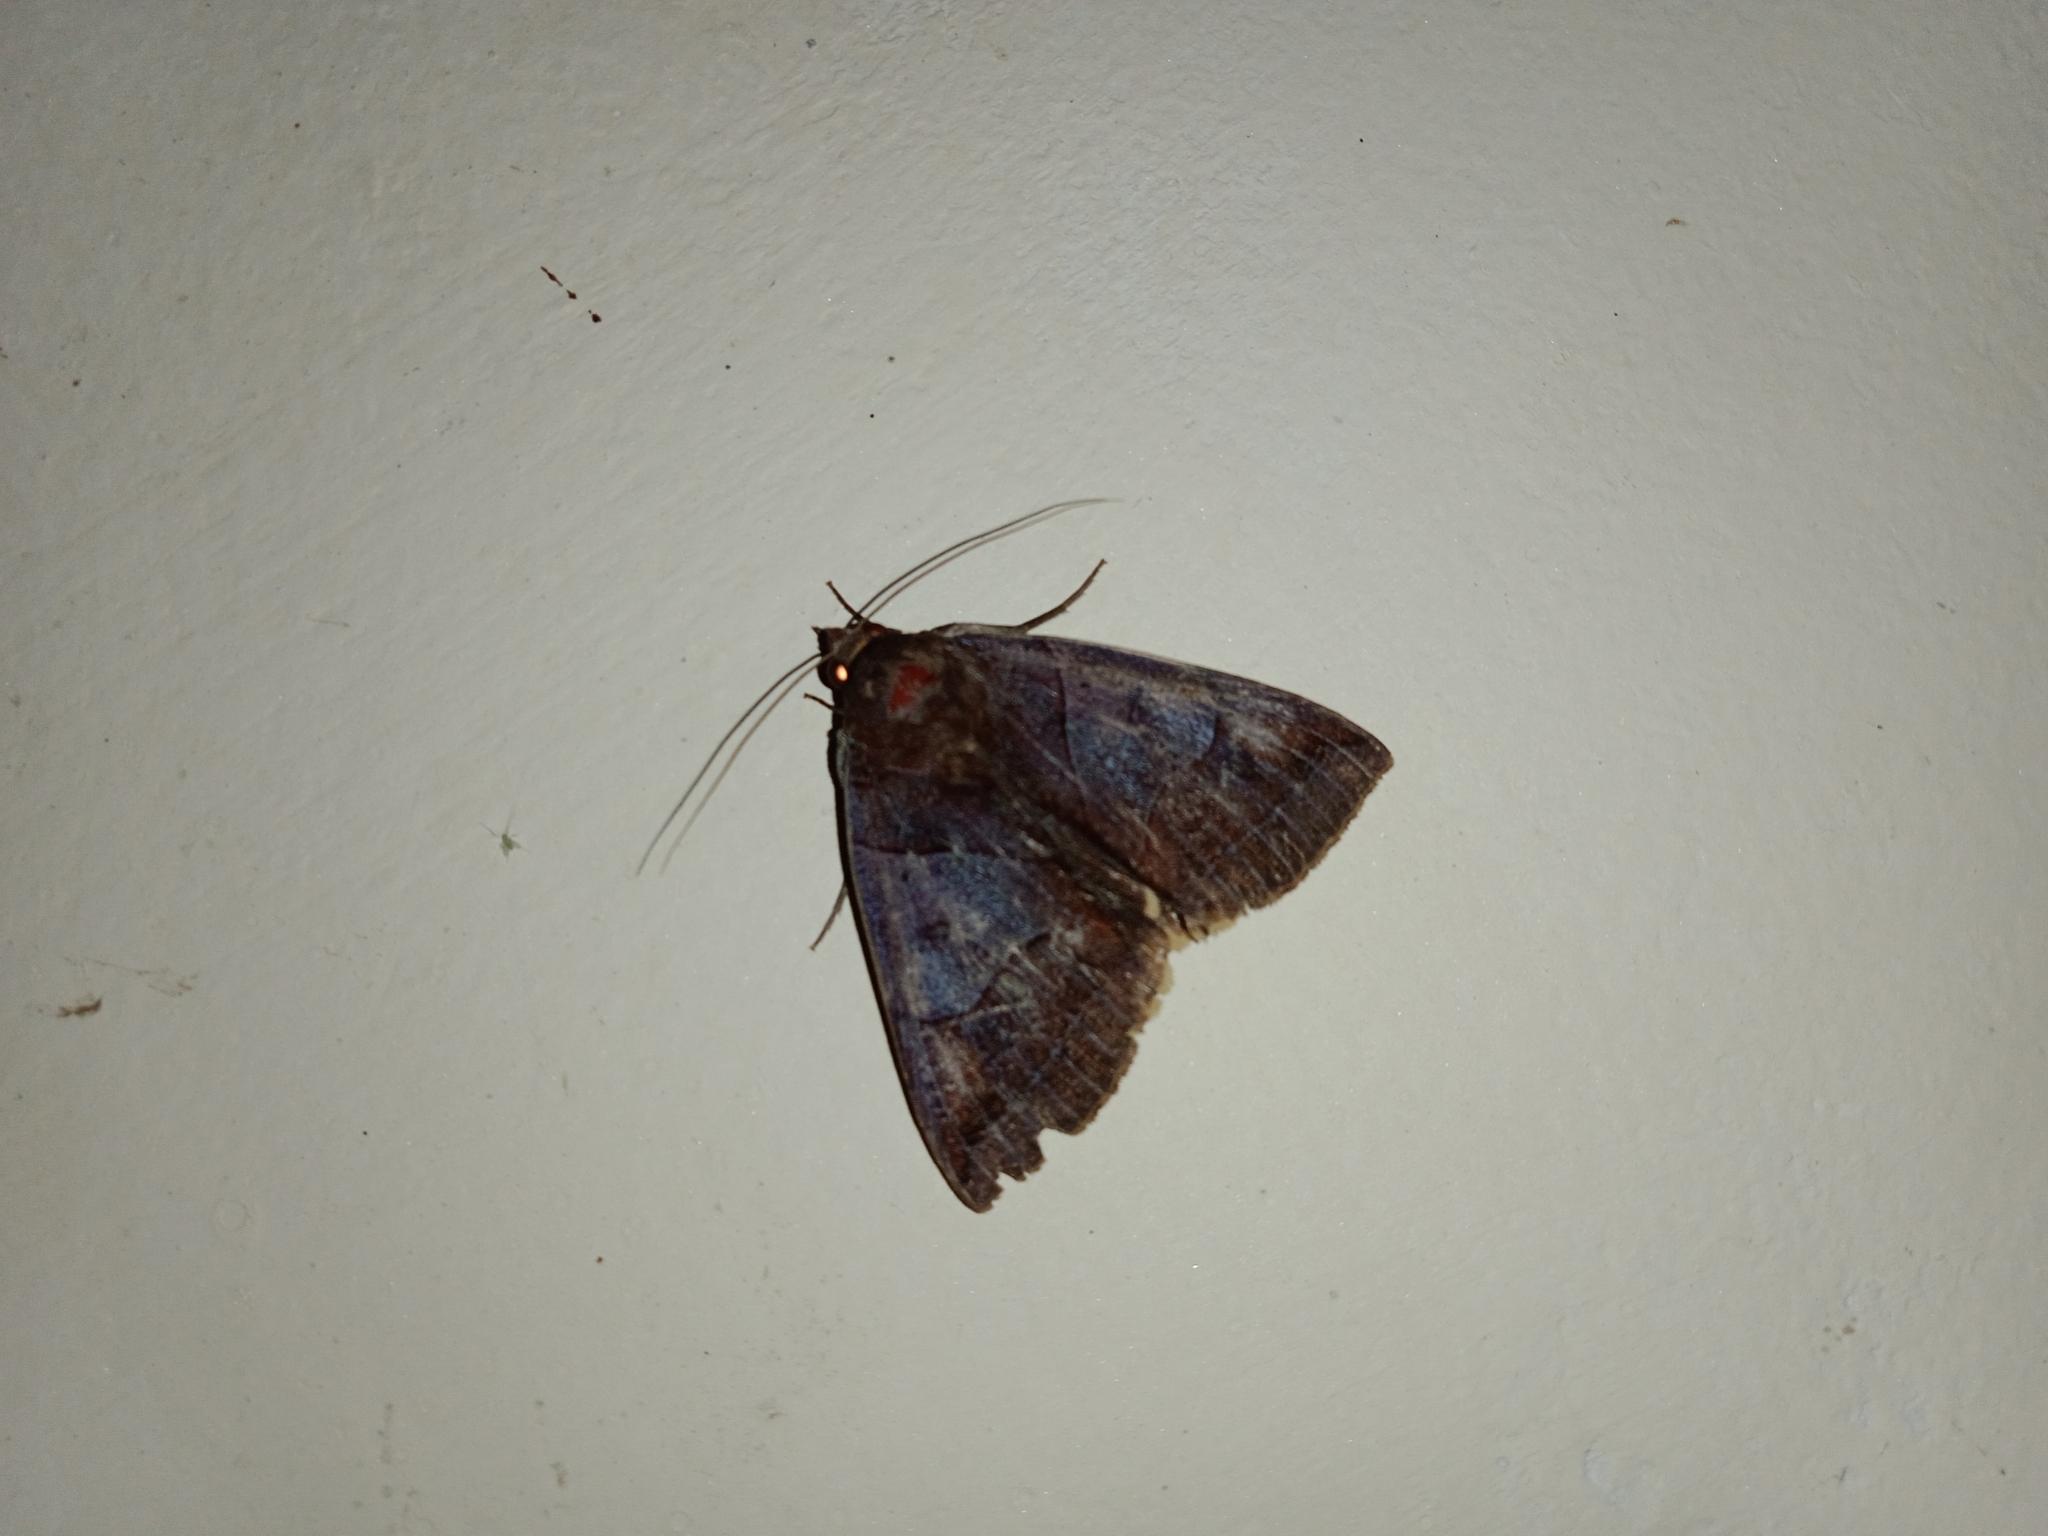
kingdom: Animalia
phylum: Arthropoda
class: Insecta
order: Lepidoptera
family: Erebidae
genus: Artena
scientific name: Artena submira
